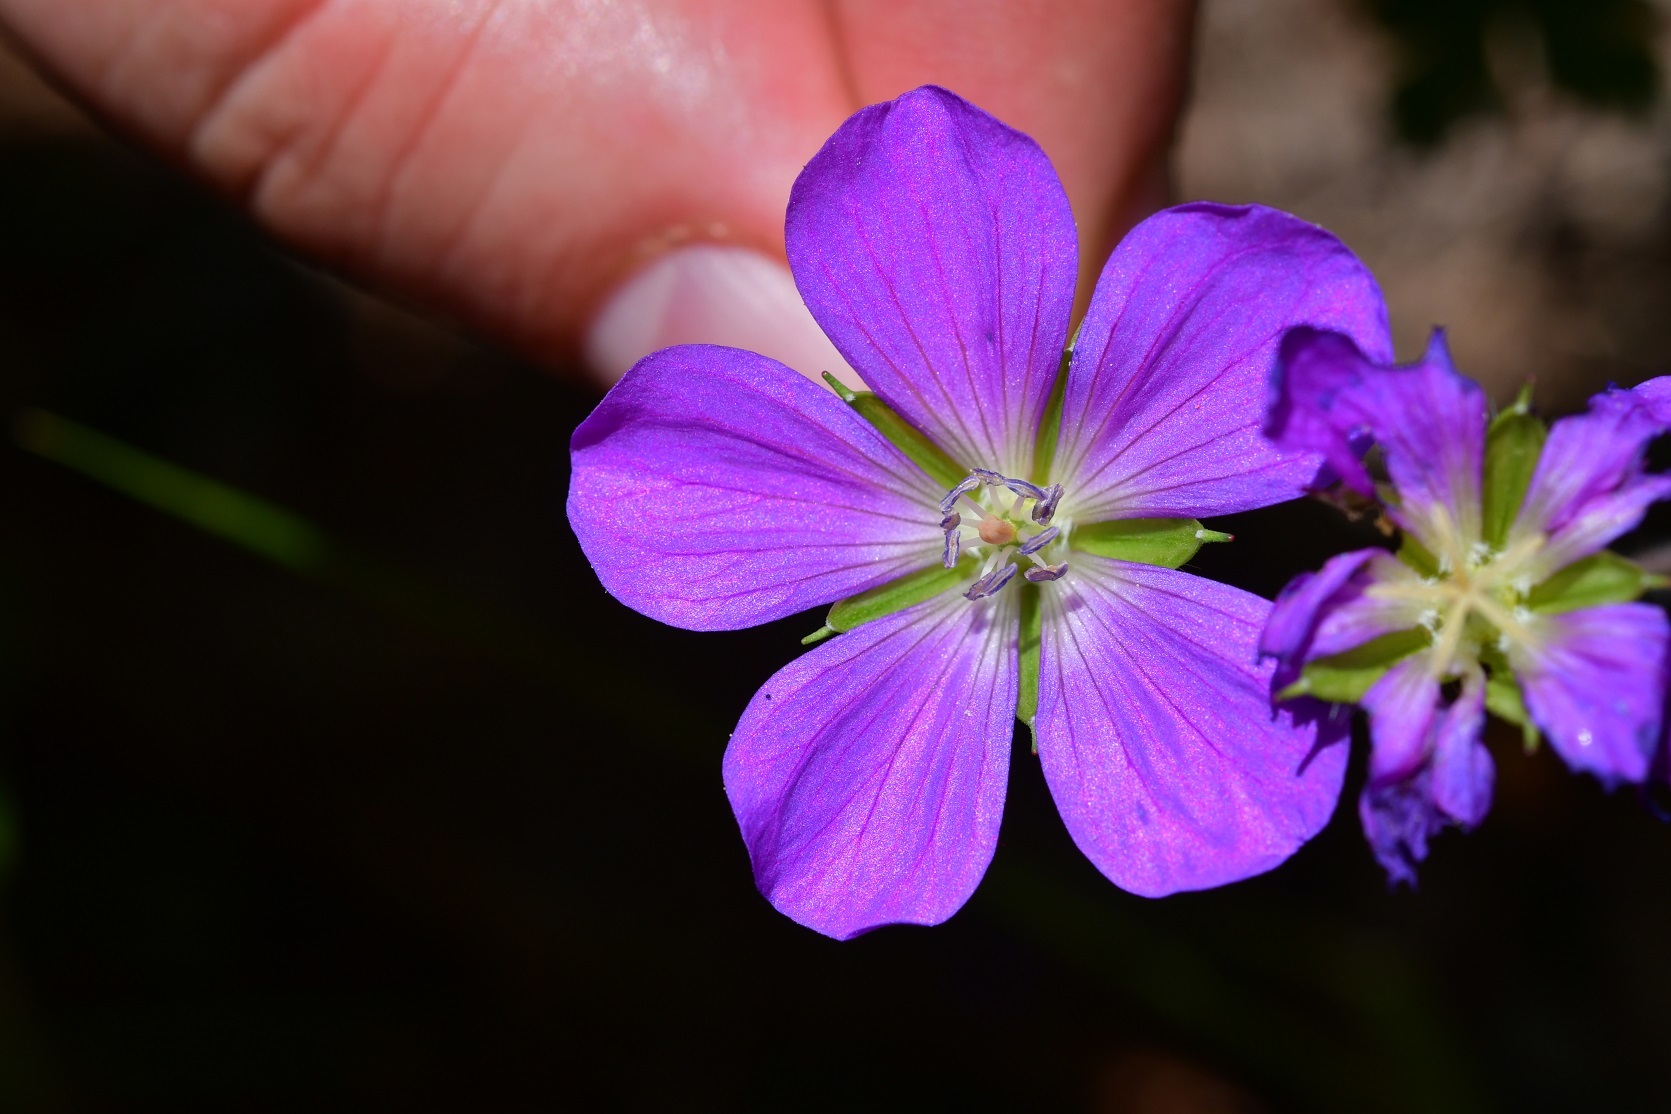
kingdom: Plantae
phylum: Tracheophyta
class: Magnoliopsida
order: Geraniales
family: Geraniaceae
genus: Geranium
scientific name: Geranium goldmanii
